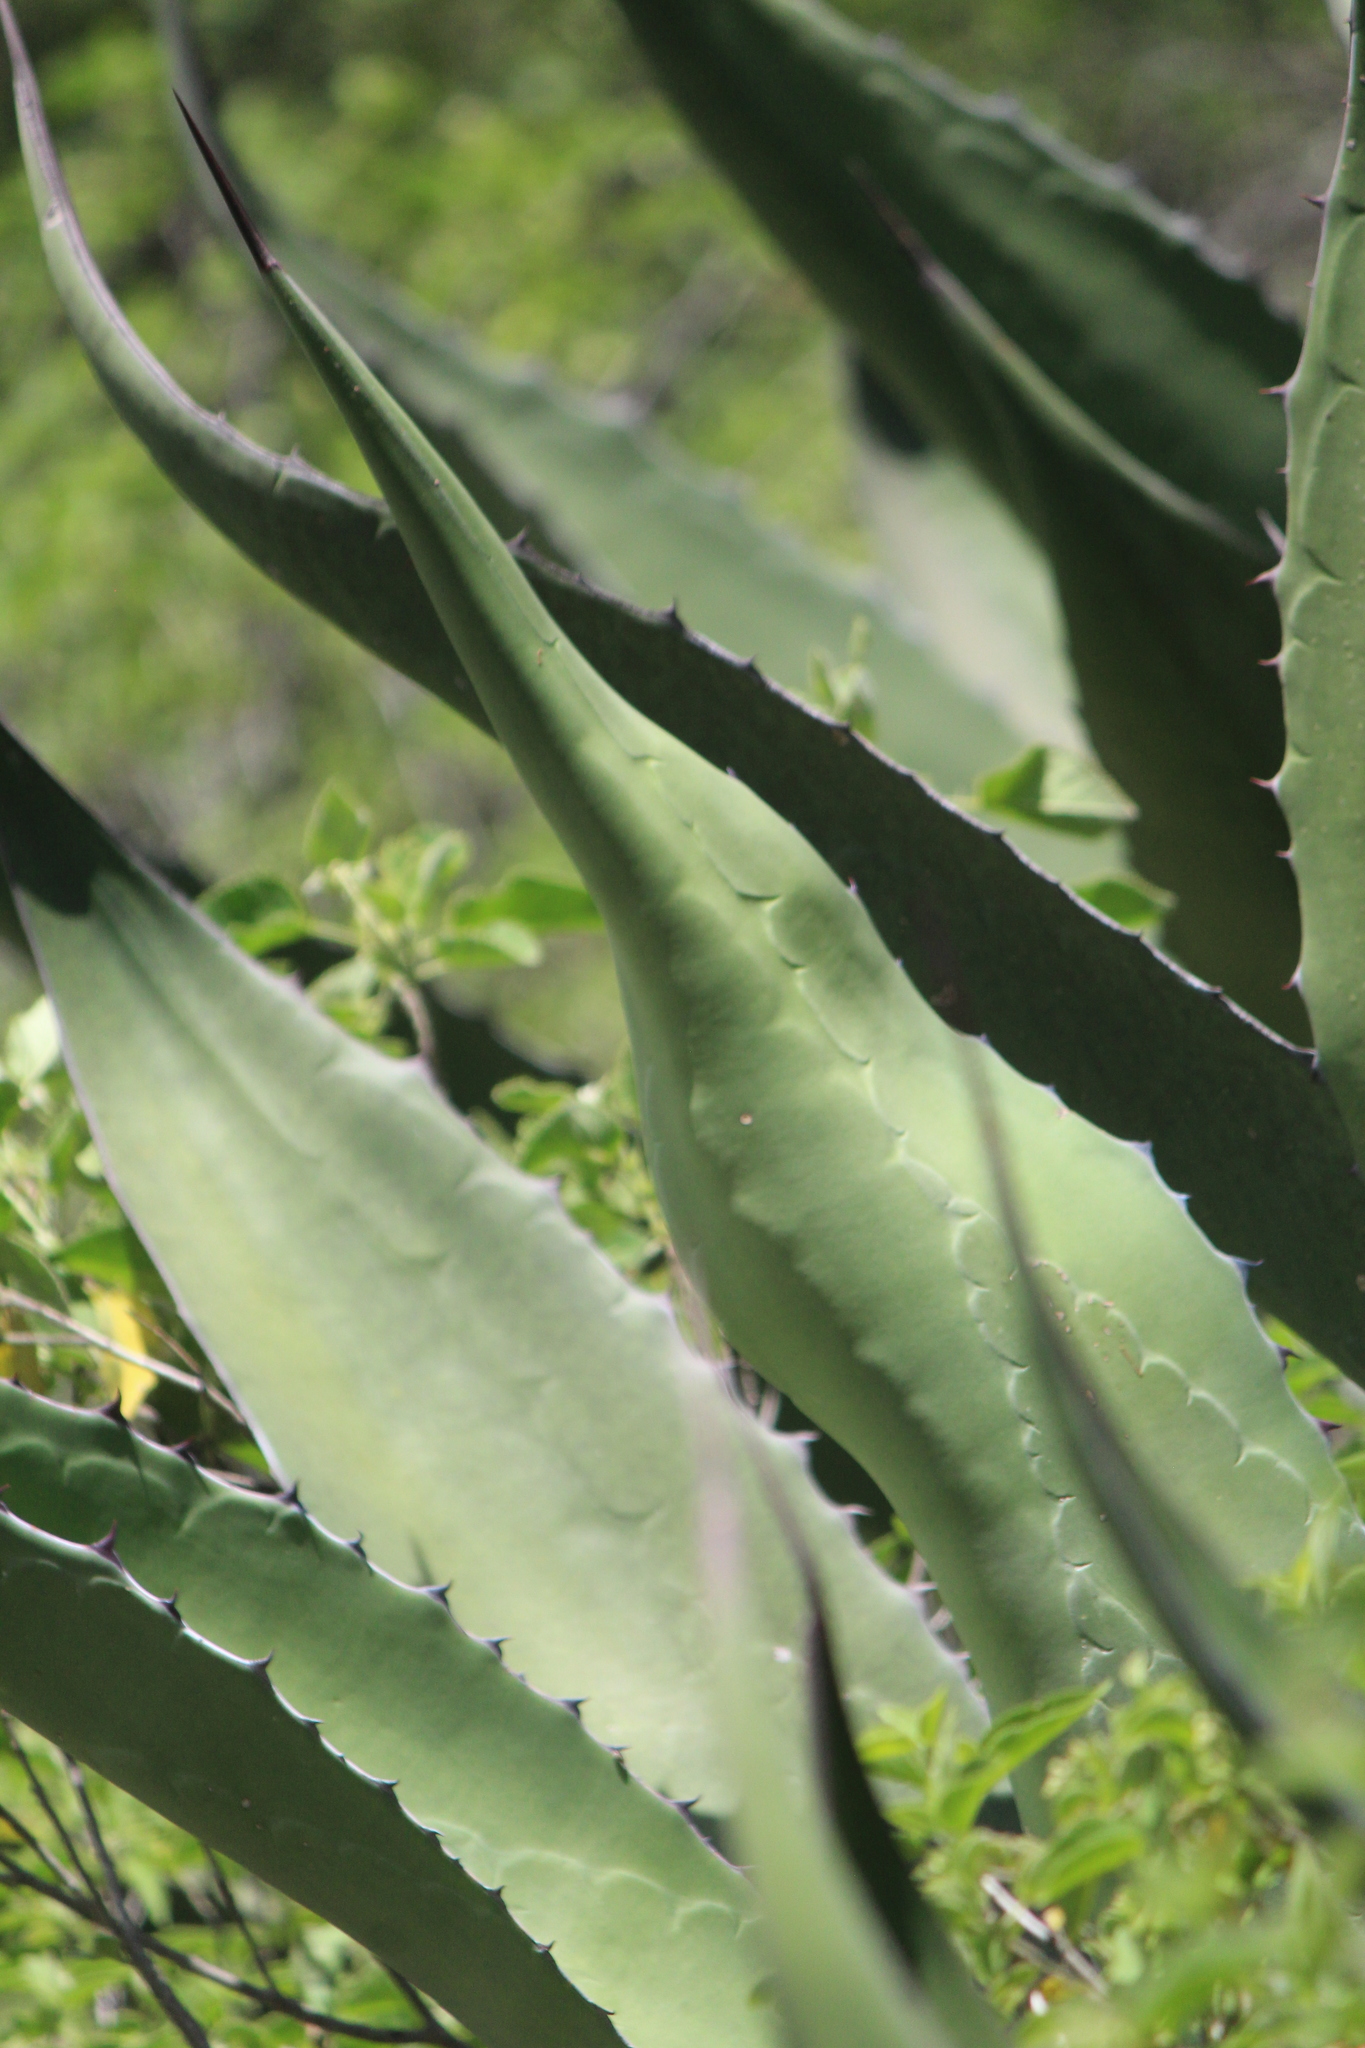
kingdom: Plantae
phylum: Tracheophyta
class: Liliopsida
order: Asparagales
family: Asparagaceae
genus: Agave
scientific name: Agave salmiana
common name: Pulque agave
